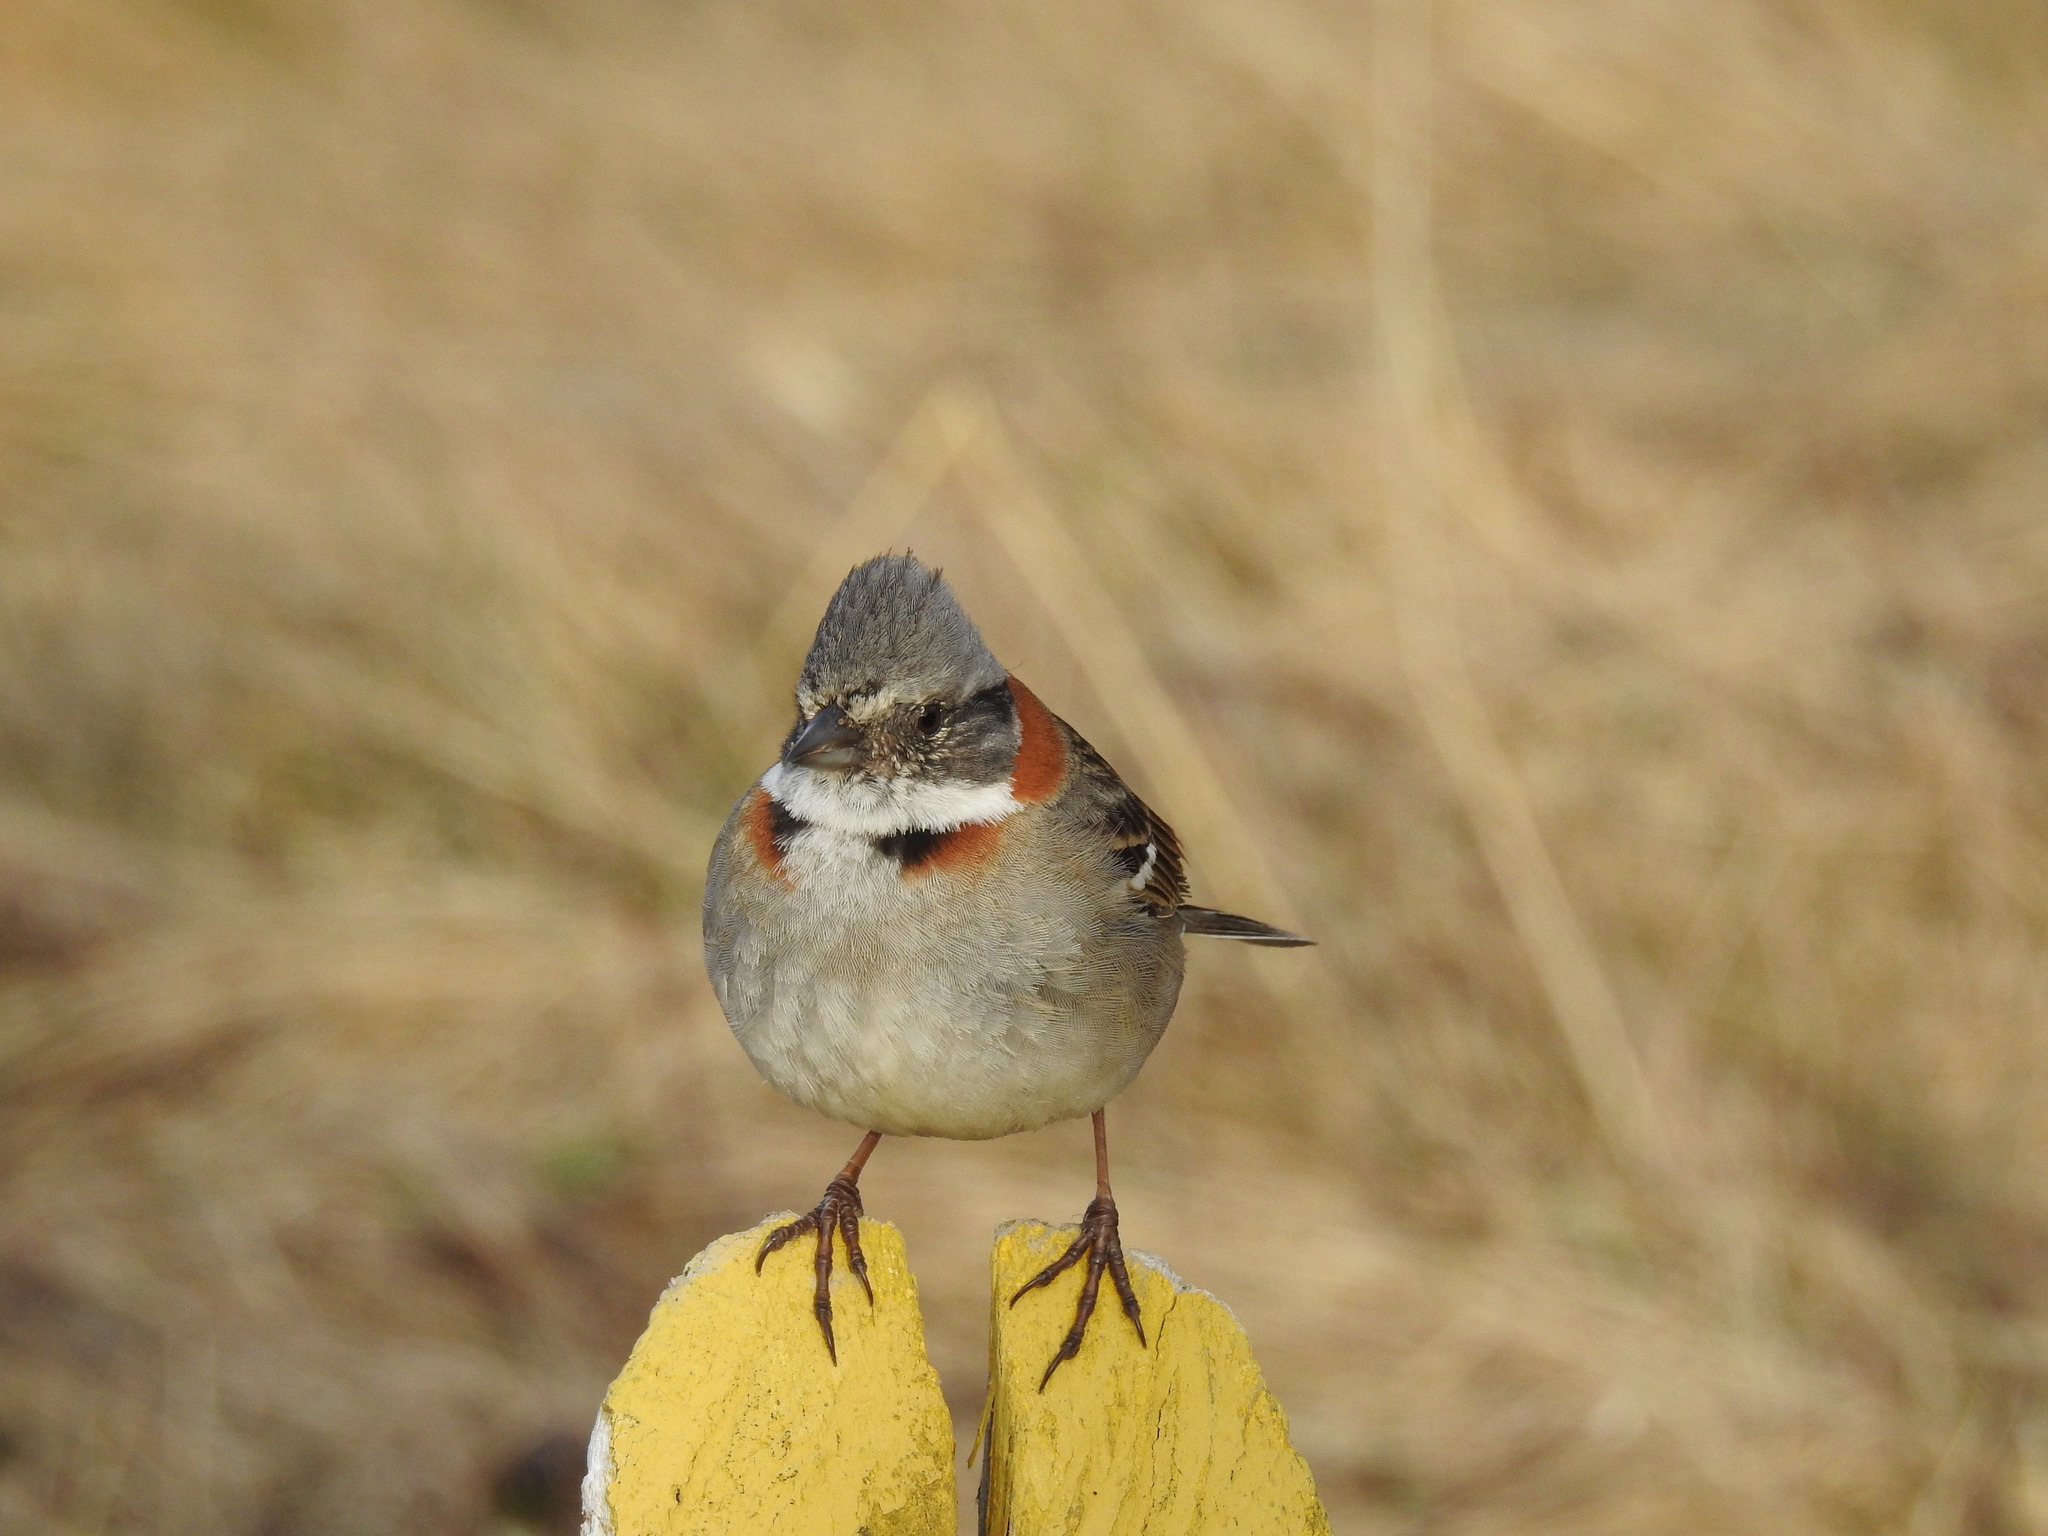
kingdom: Animalia
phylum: Chordata
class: Aves
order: Passeriformes
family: Passerellidae
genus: Zonotrichia
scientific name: Zonotrichia capensis
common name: Rufous-collared sparrow
